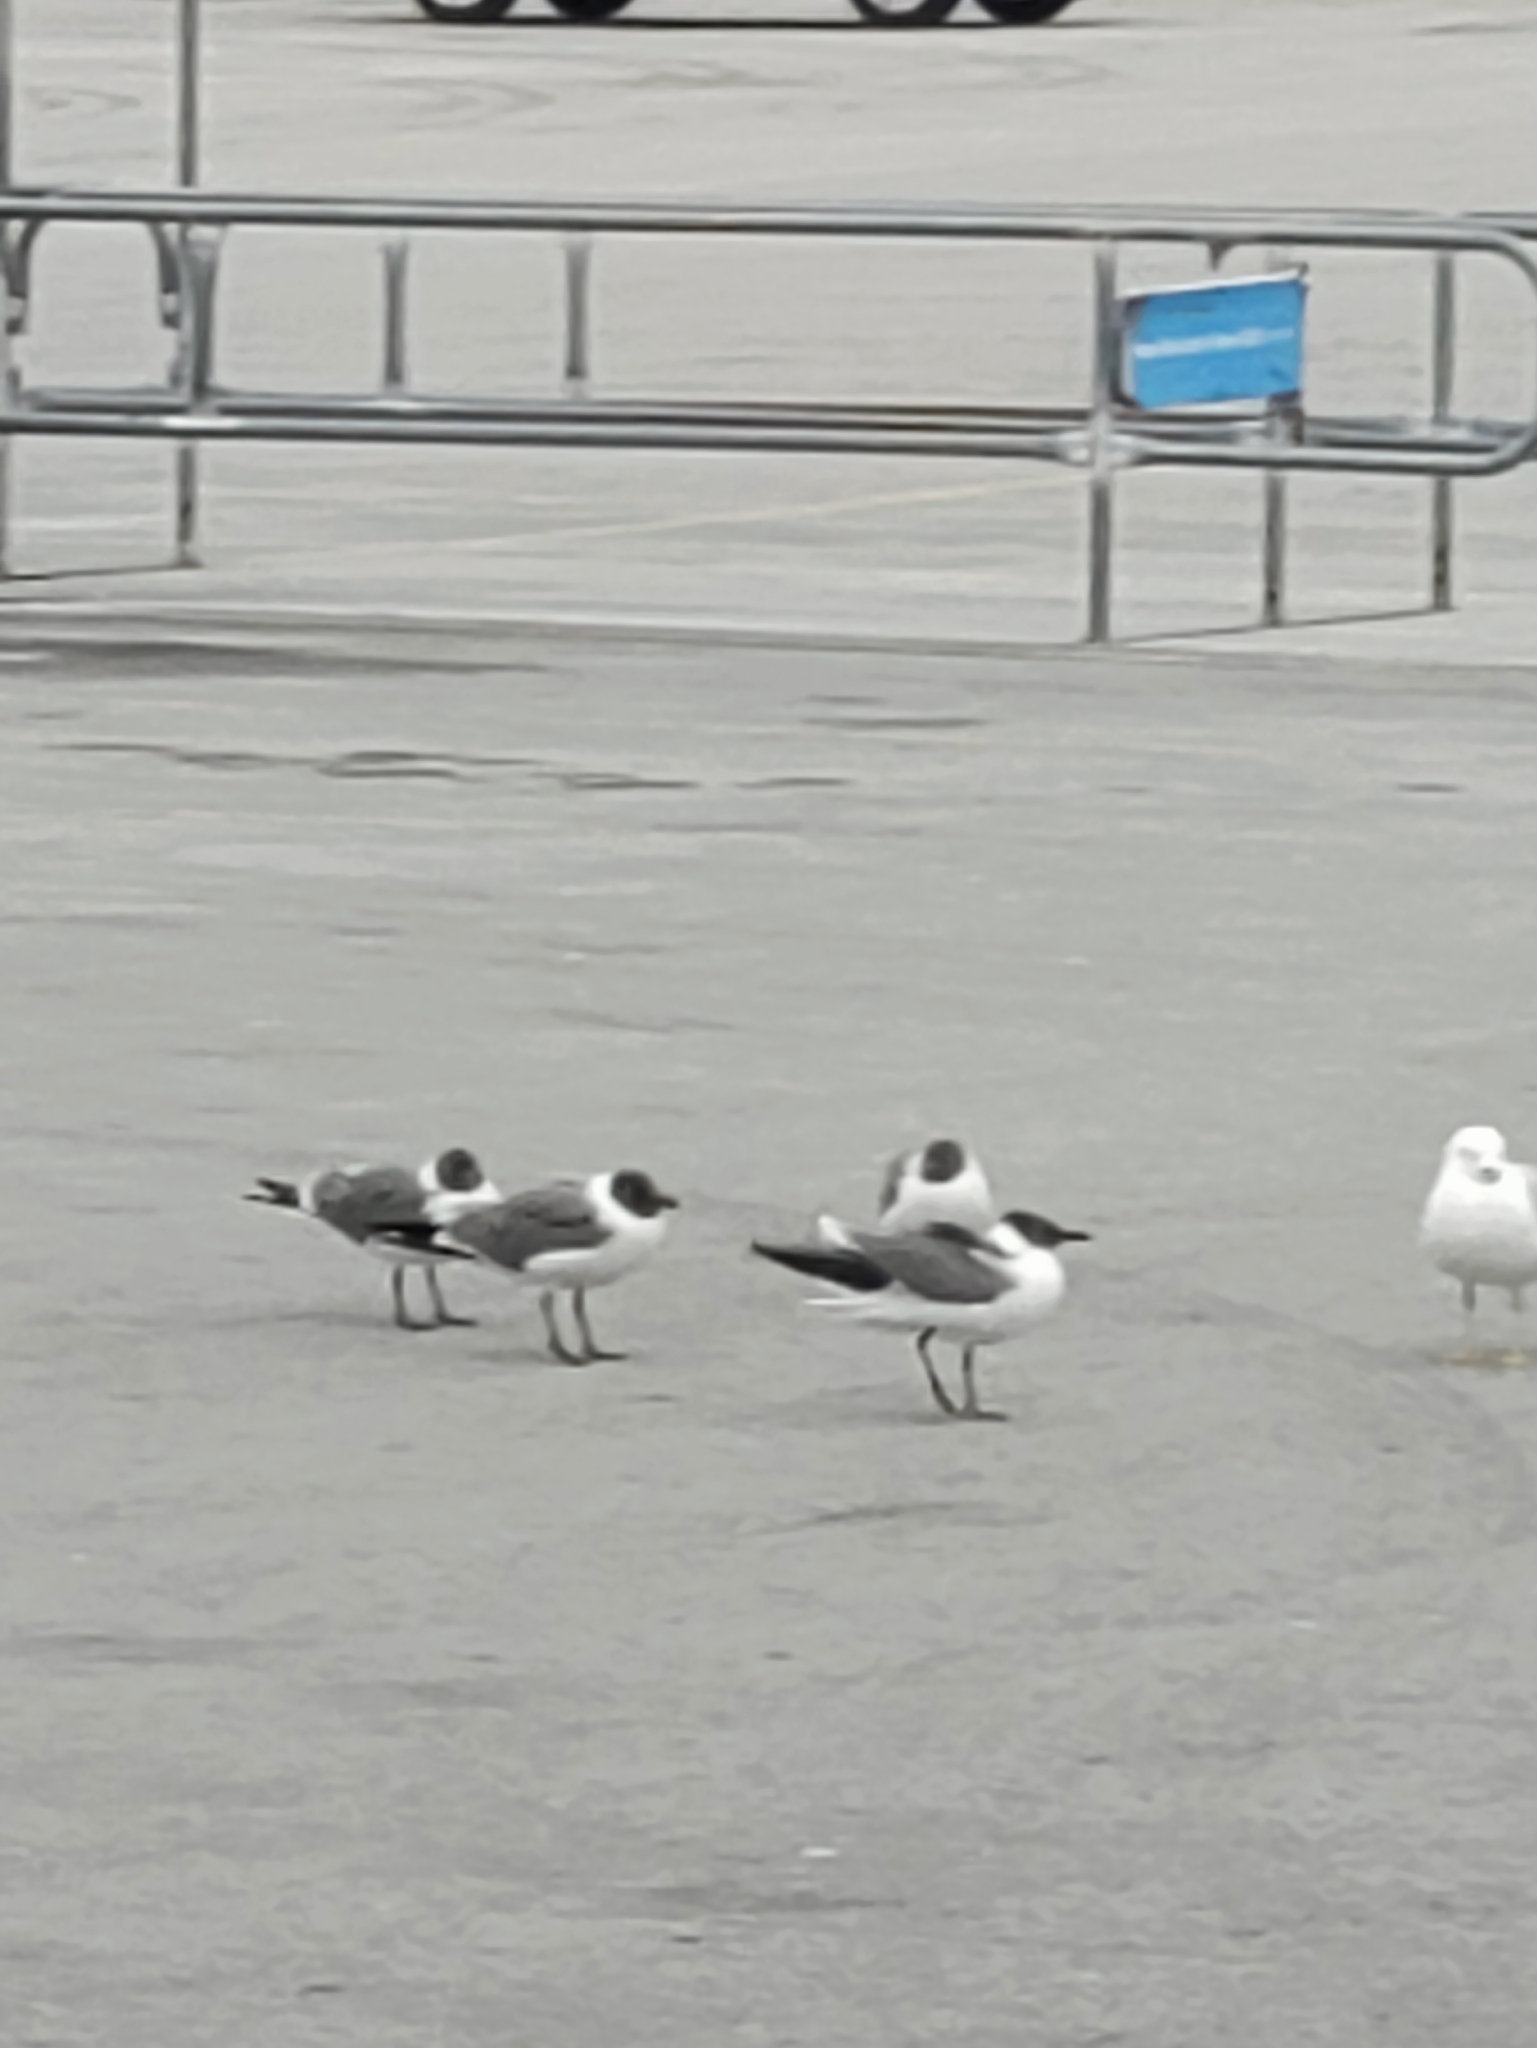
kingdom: Animalia
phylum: Chordata
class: Aves
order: Charadriiformes
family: Laridae
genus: Leucophaeus
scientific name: Leucophaeus atricilla
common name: Laughing gull
